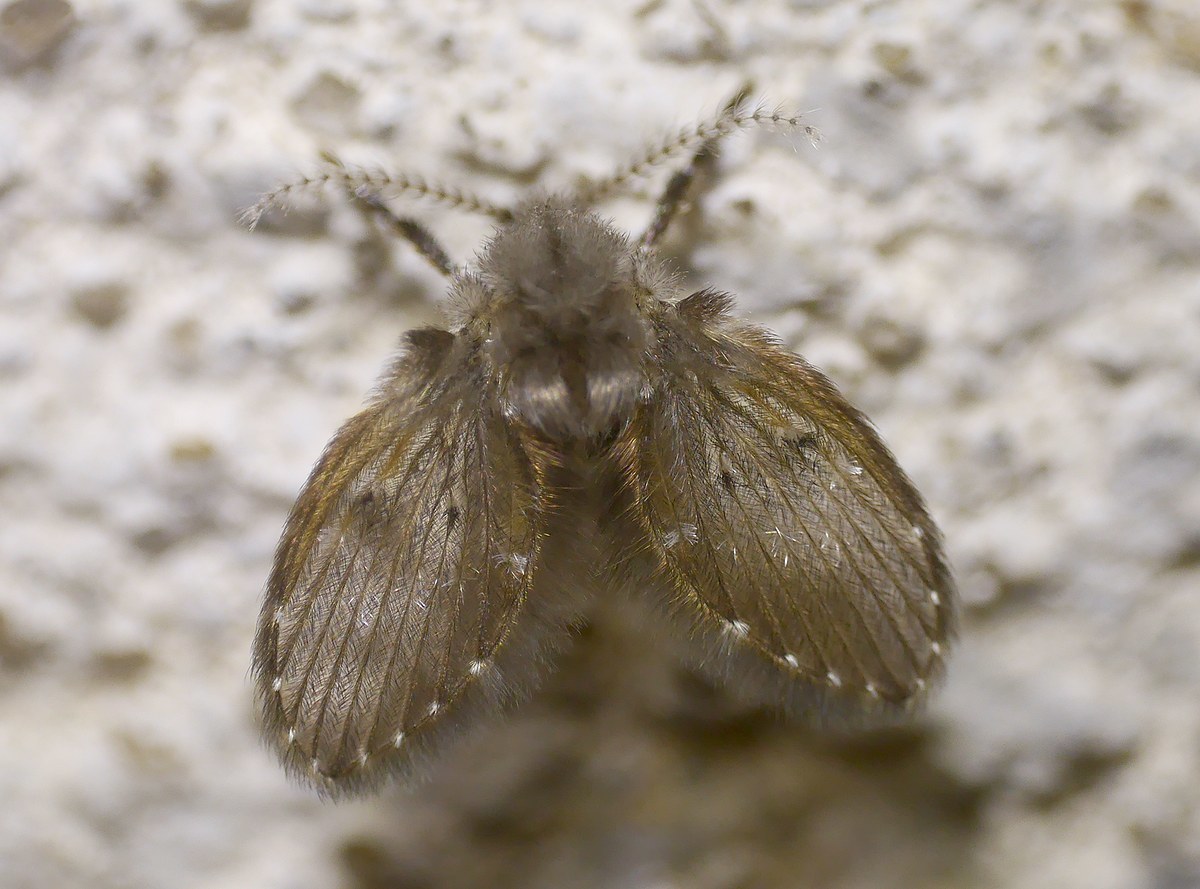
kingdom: Animalia
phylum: Arthropoda
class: Insecta
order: Diptera
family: Psychodidae
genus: Clogmia
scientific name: Clogmia albipunctatus
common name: White-spotted moth fly
